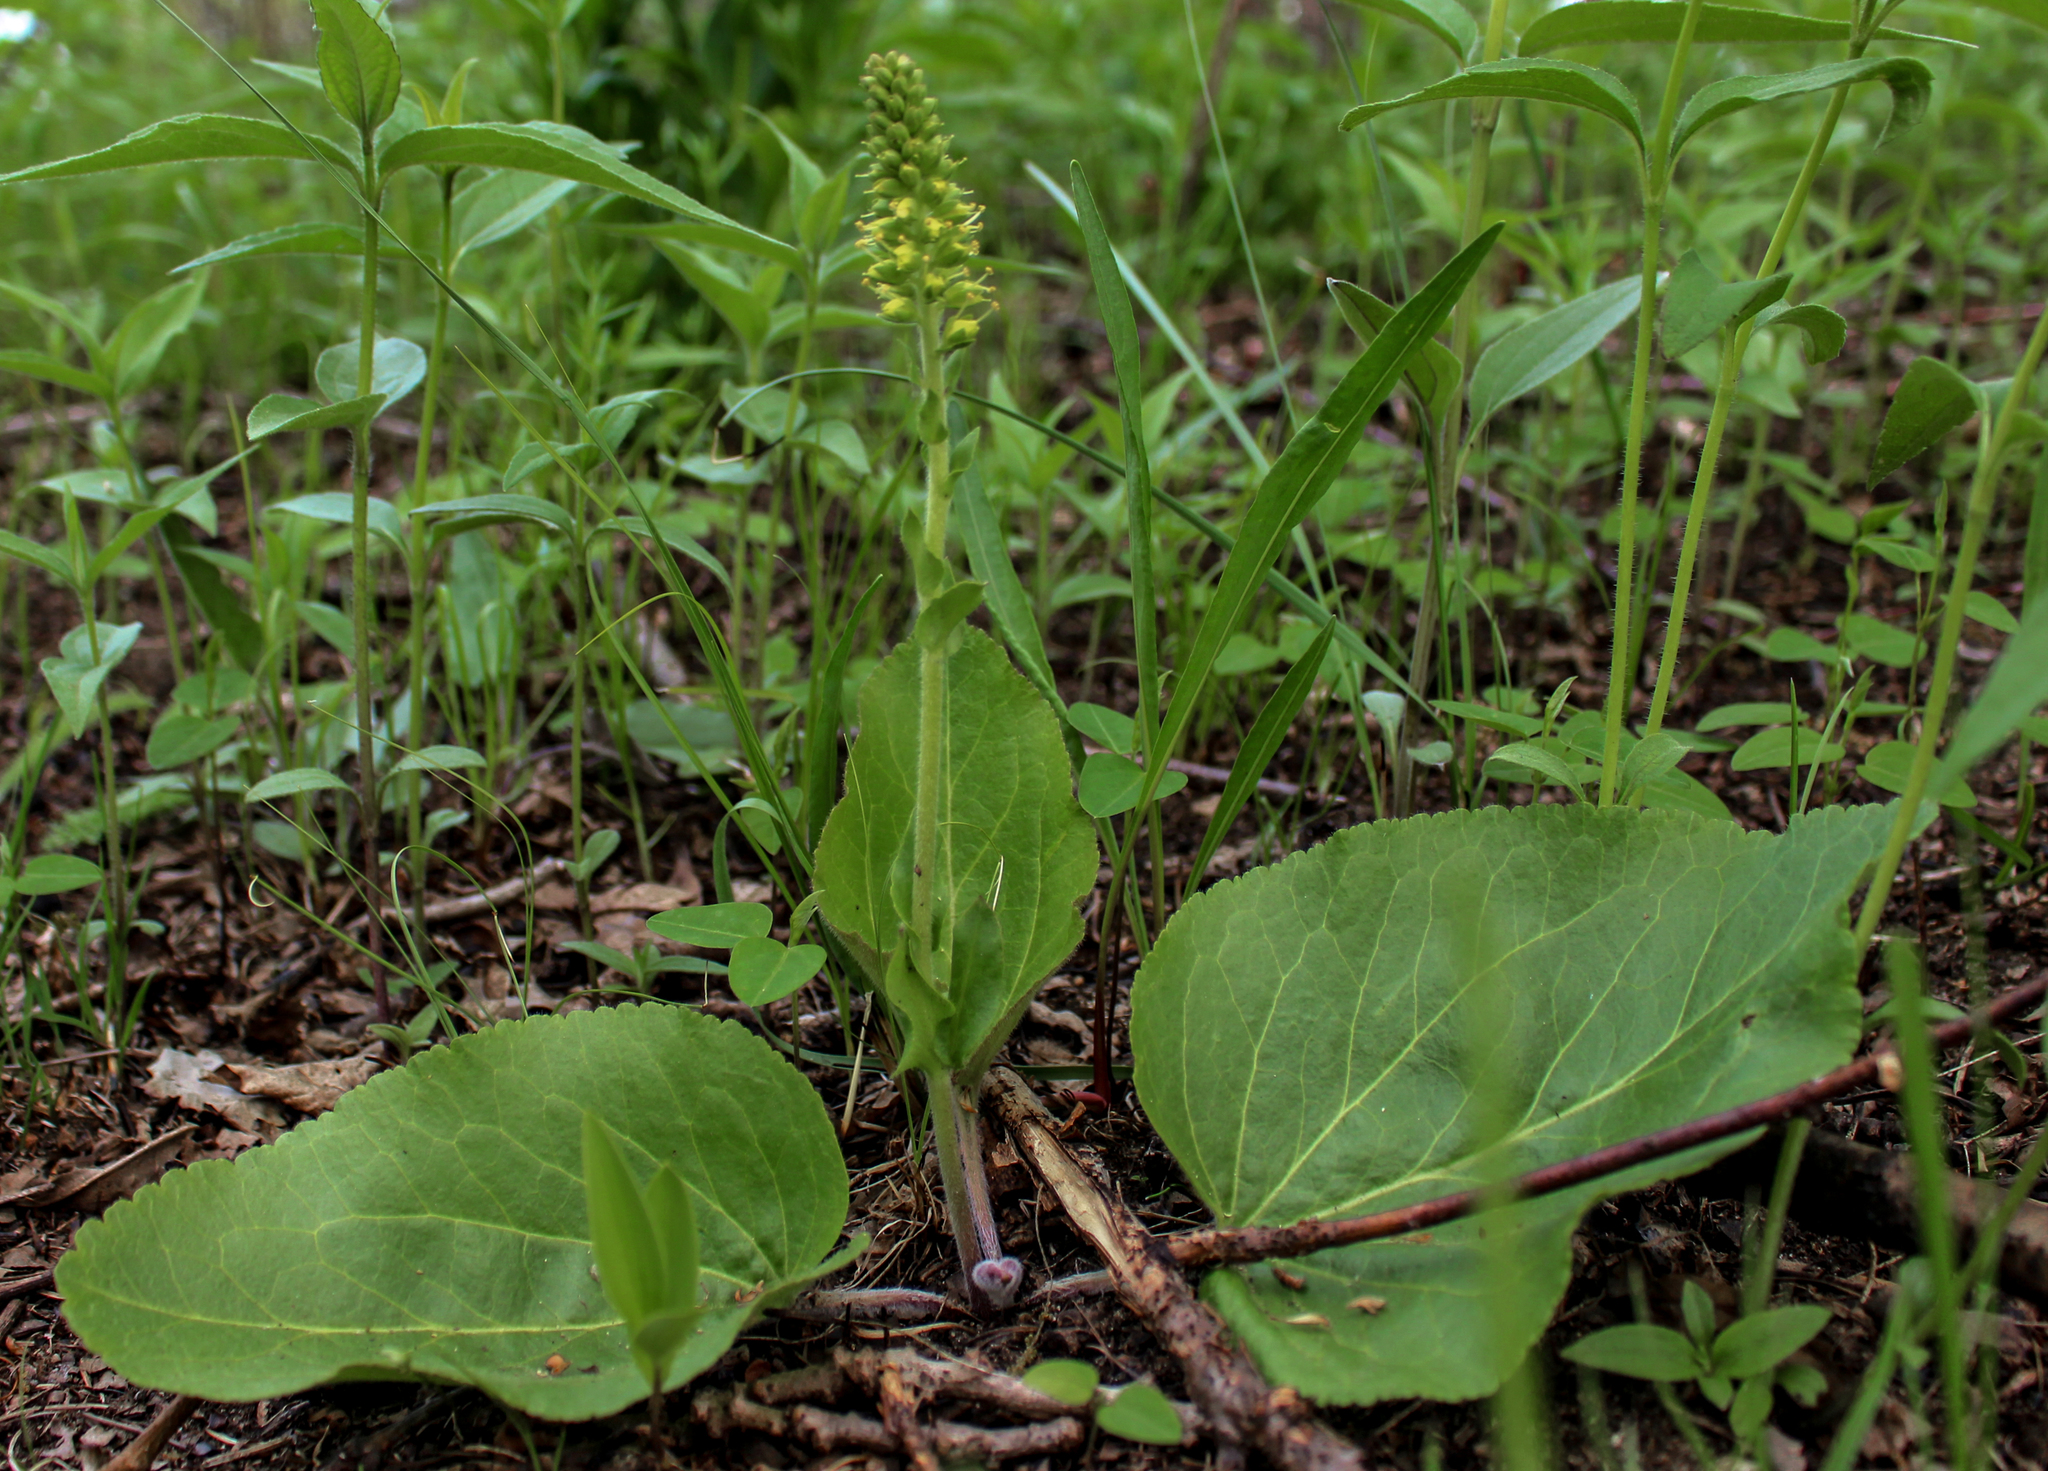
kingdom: Plantae
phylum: Tracheophyta
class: Magnoliopsida
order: Lamiales
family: Plantaginaceae
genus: Synthyris
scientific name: Synthyris bullii
